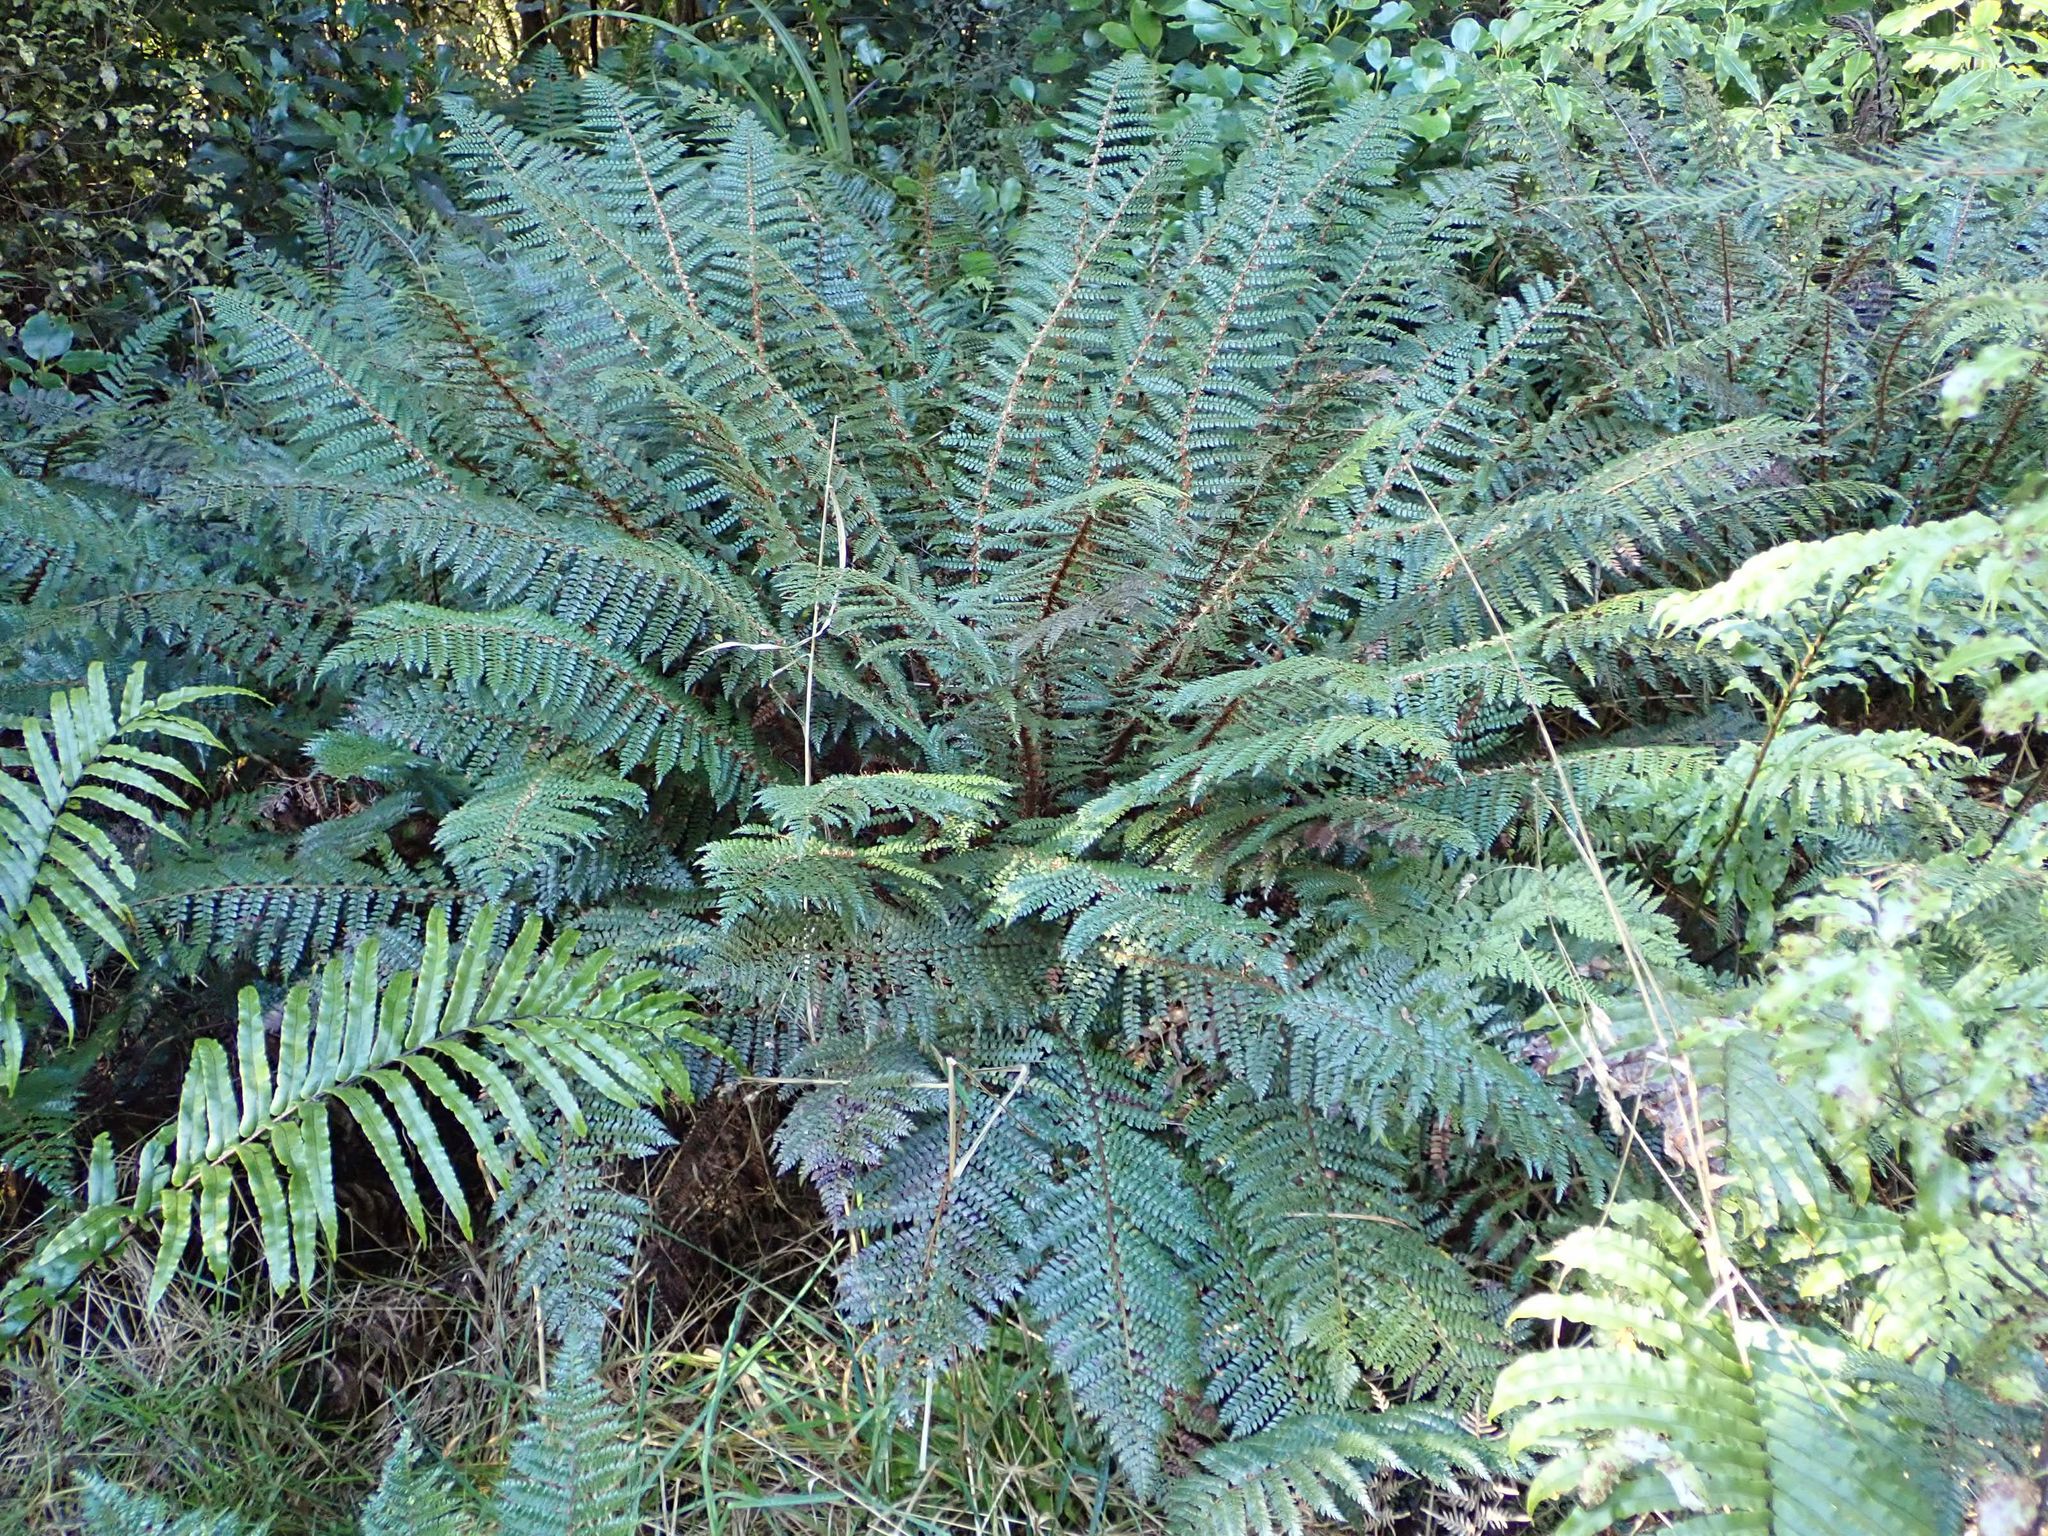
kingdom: Plantae
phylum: Tracheophyta
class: Polypodiopsida
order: Polypodiales
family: Dryopteridaceae
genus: Polystichum
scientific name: Polystichum vestitum
